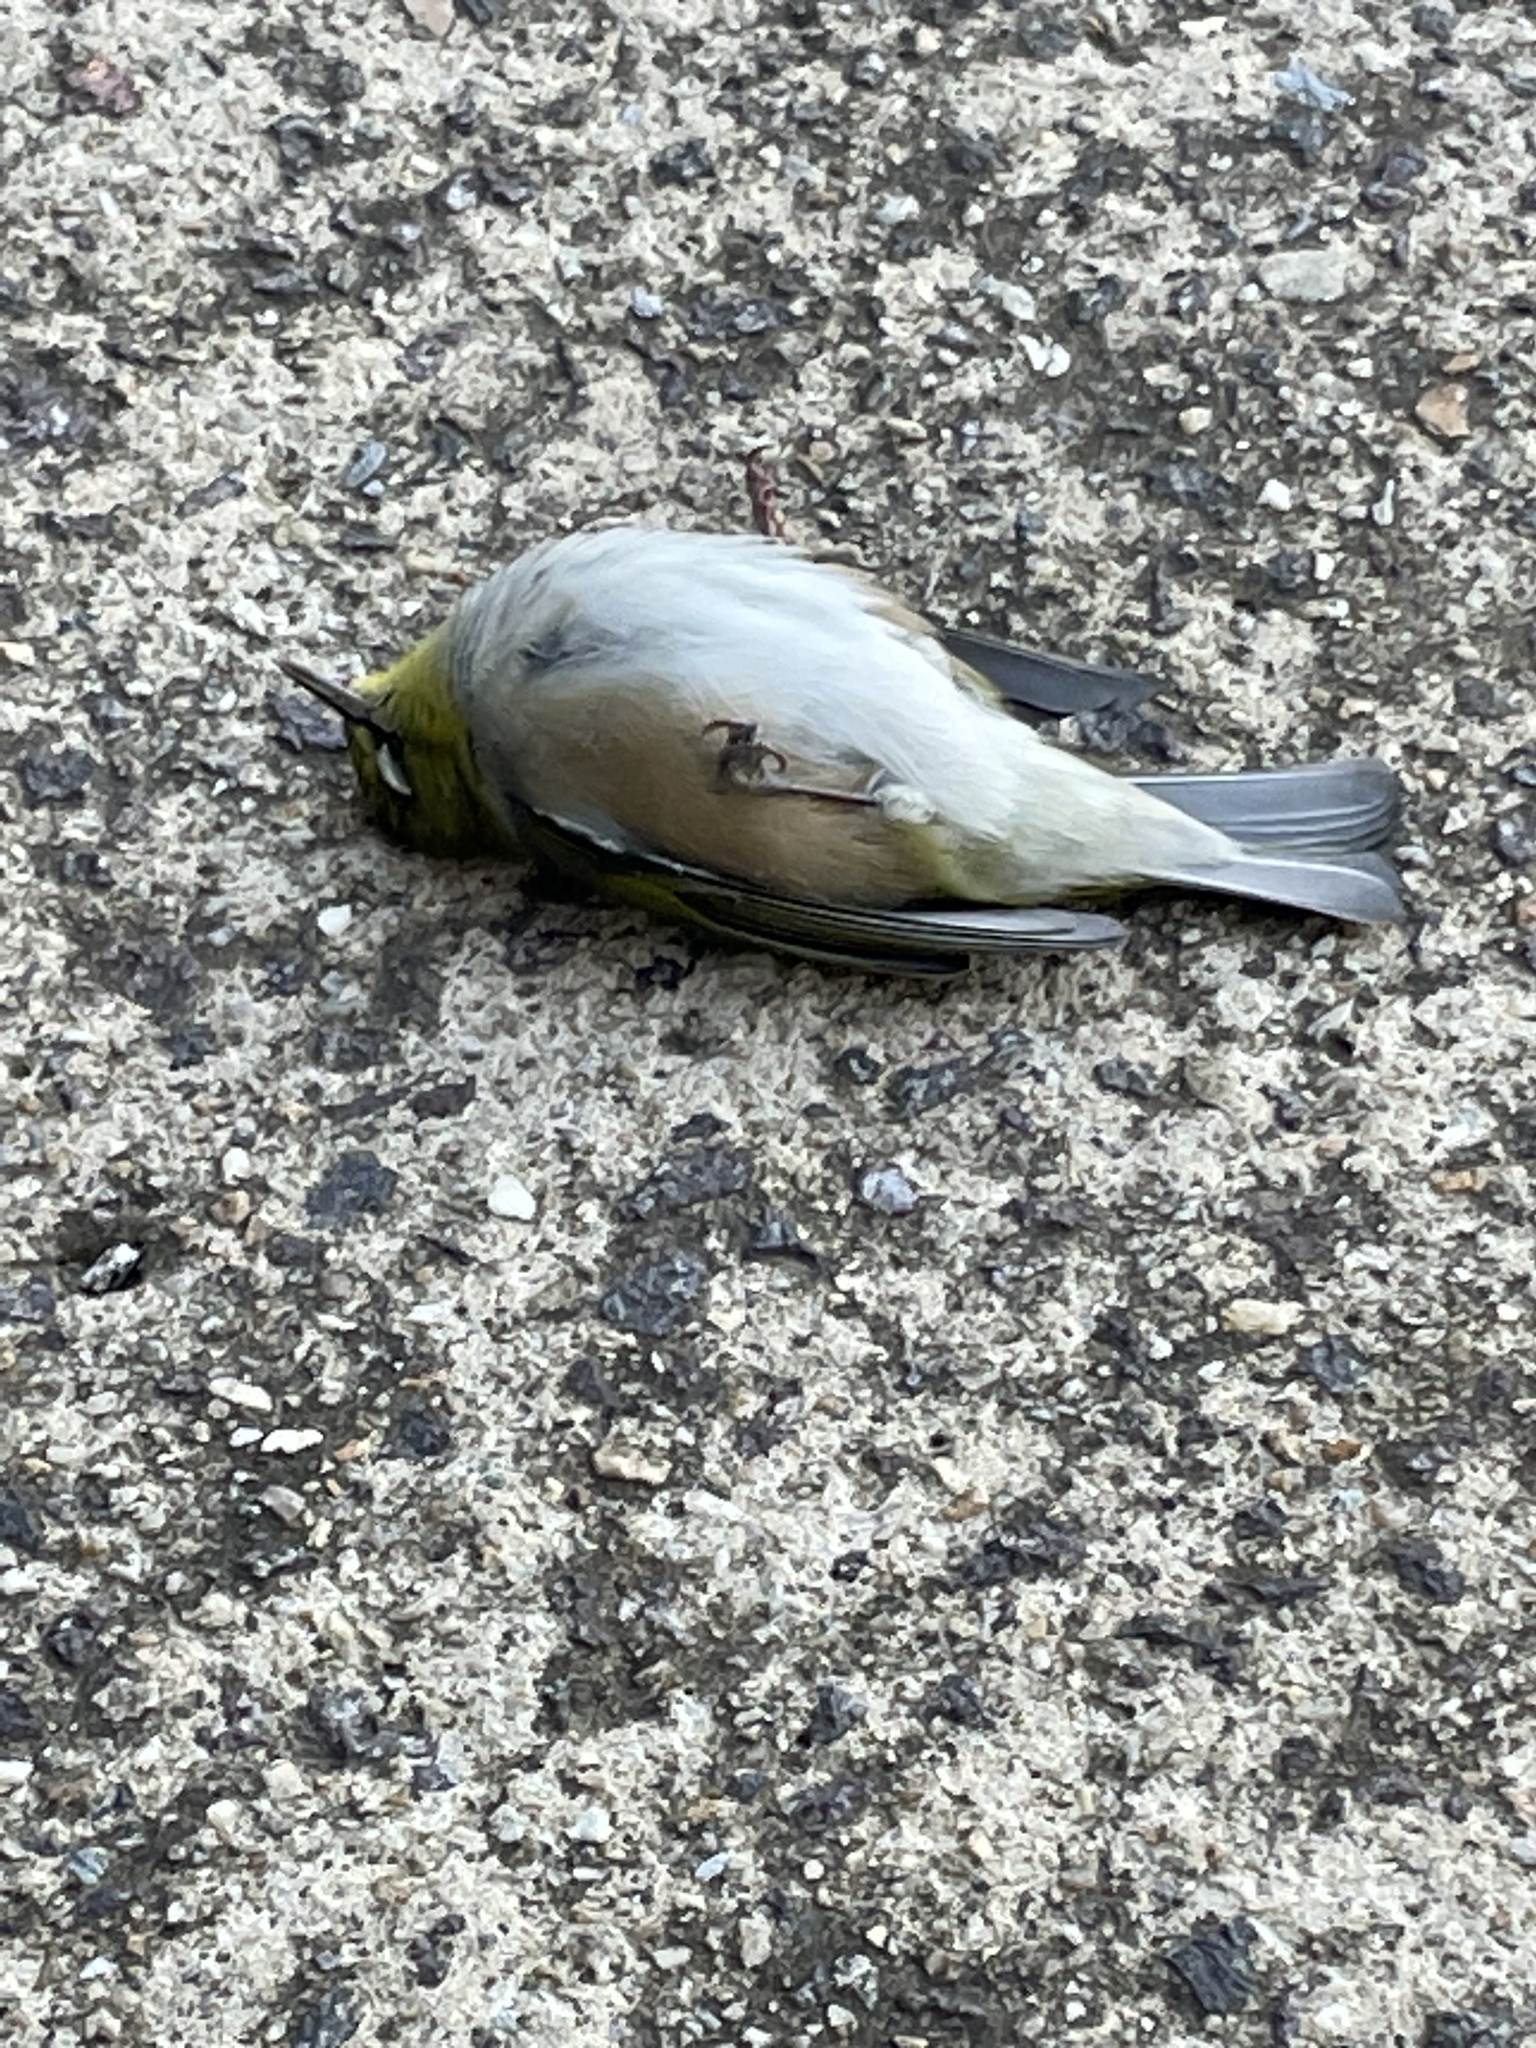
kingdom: Animalia
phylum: Chordata
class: Aves
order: Passeriformes
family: Zosteropidae
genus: Zosterops
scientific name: Zosterops lateralis
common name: Silvereye
